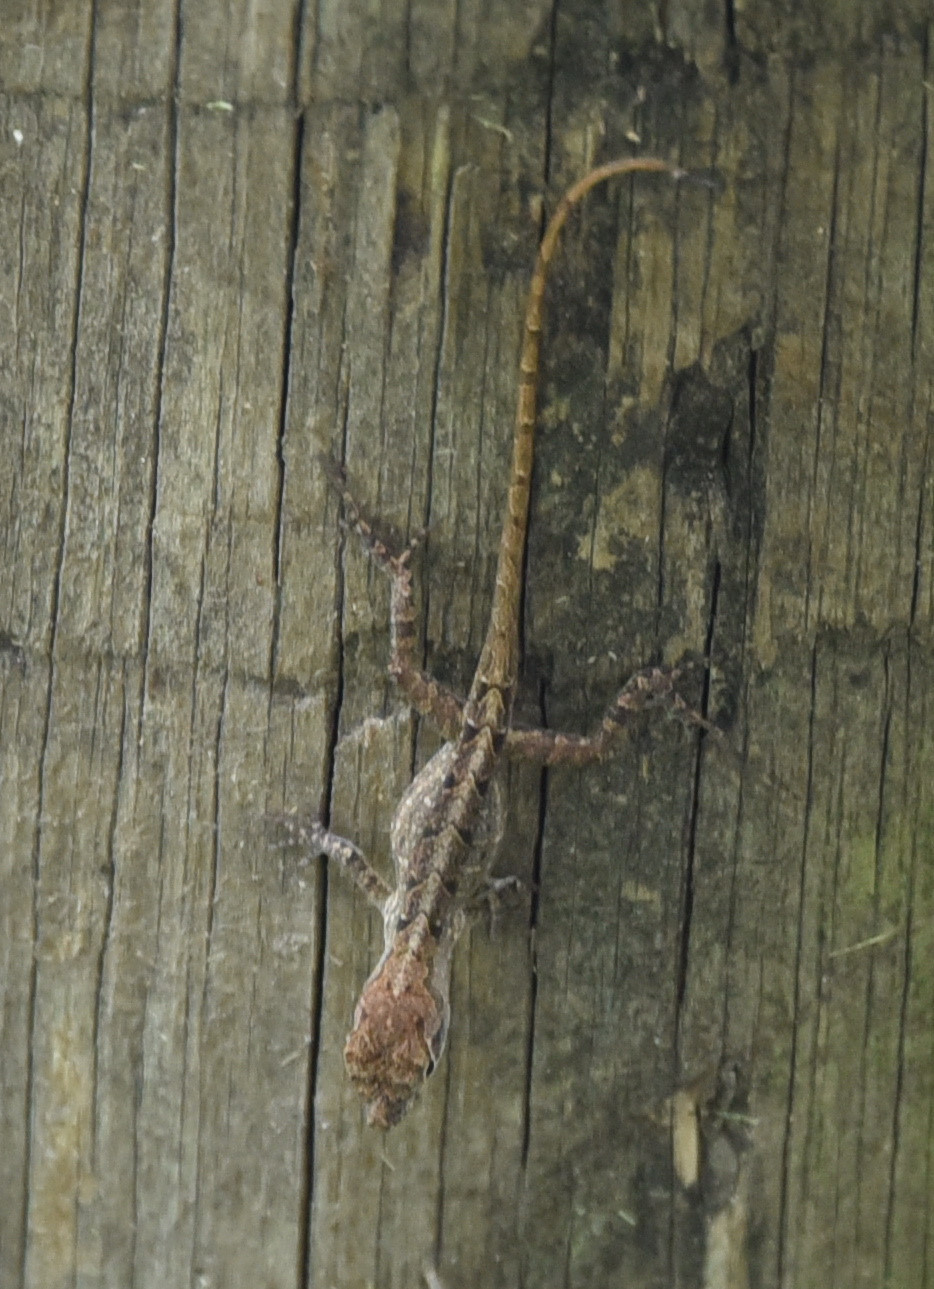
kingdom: Animalia
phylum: Chordata
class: Squamata
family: Dactyloidae
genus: Anolis
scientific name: Anolis sagrei
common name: Brown anole
